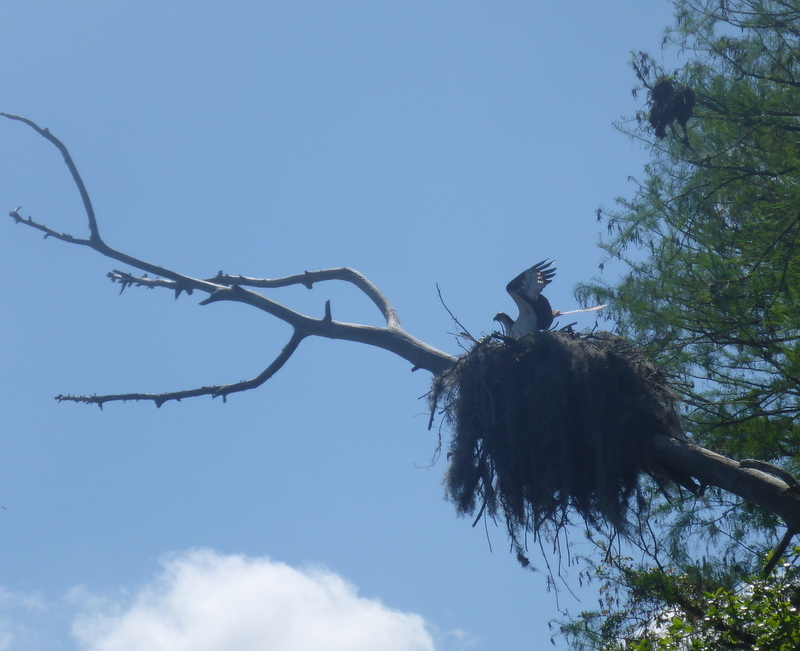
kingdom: Animalia
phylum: Chordata
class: Aves
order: Accipitriformes
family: Pandionidae
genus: Pandion
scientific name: Pandion haliaetus
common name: Osprey
